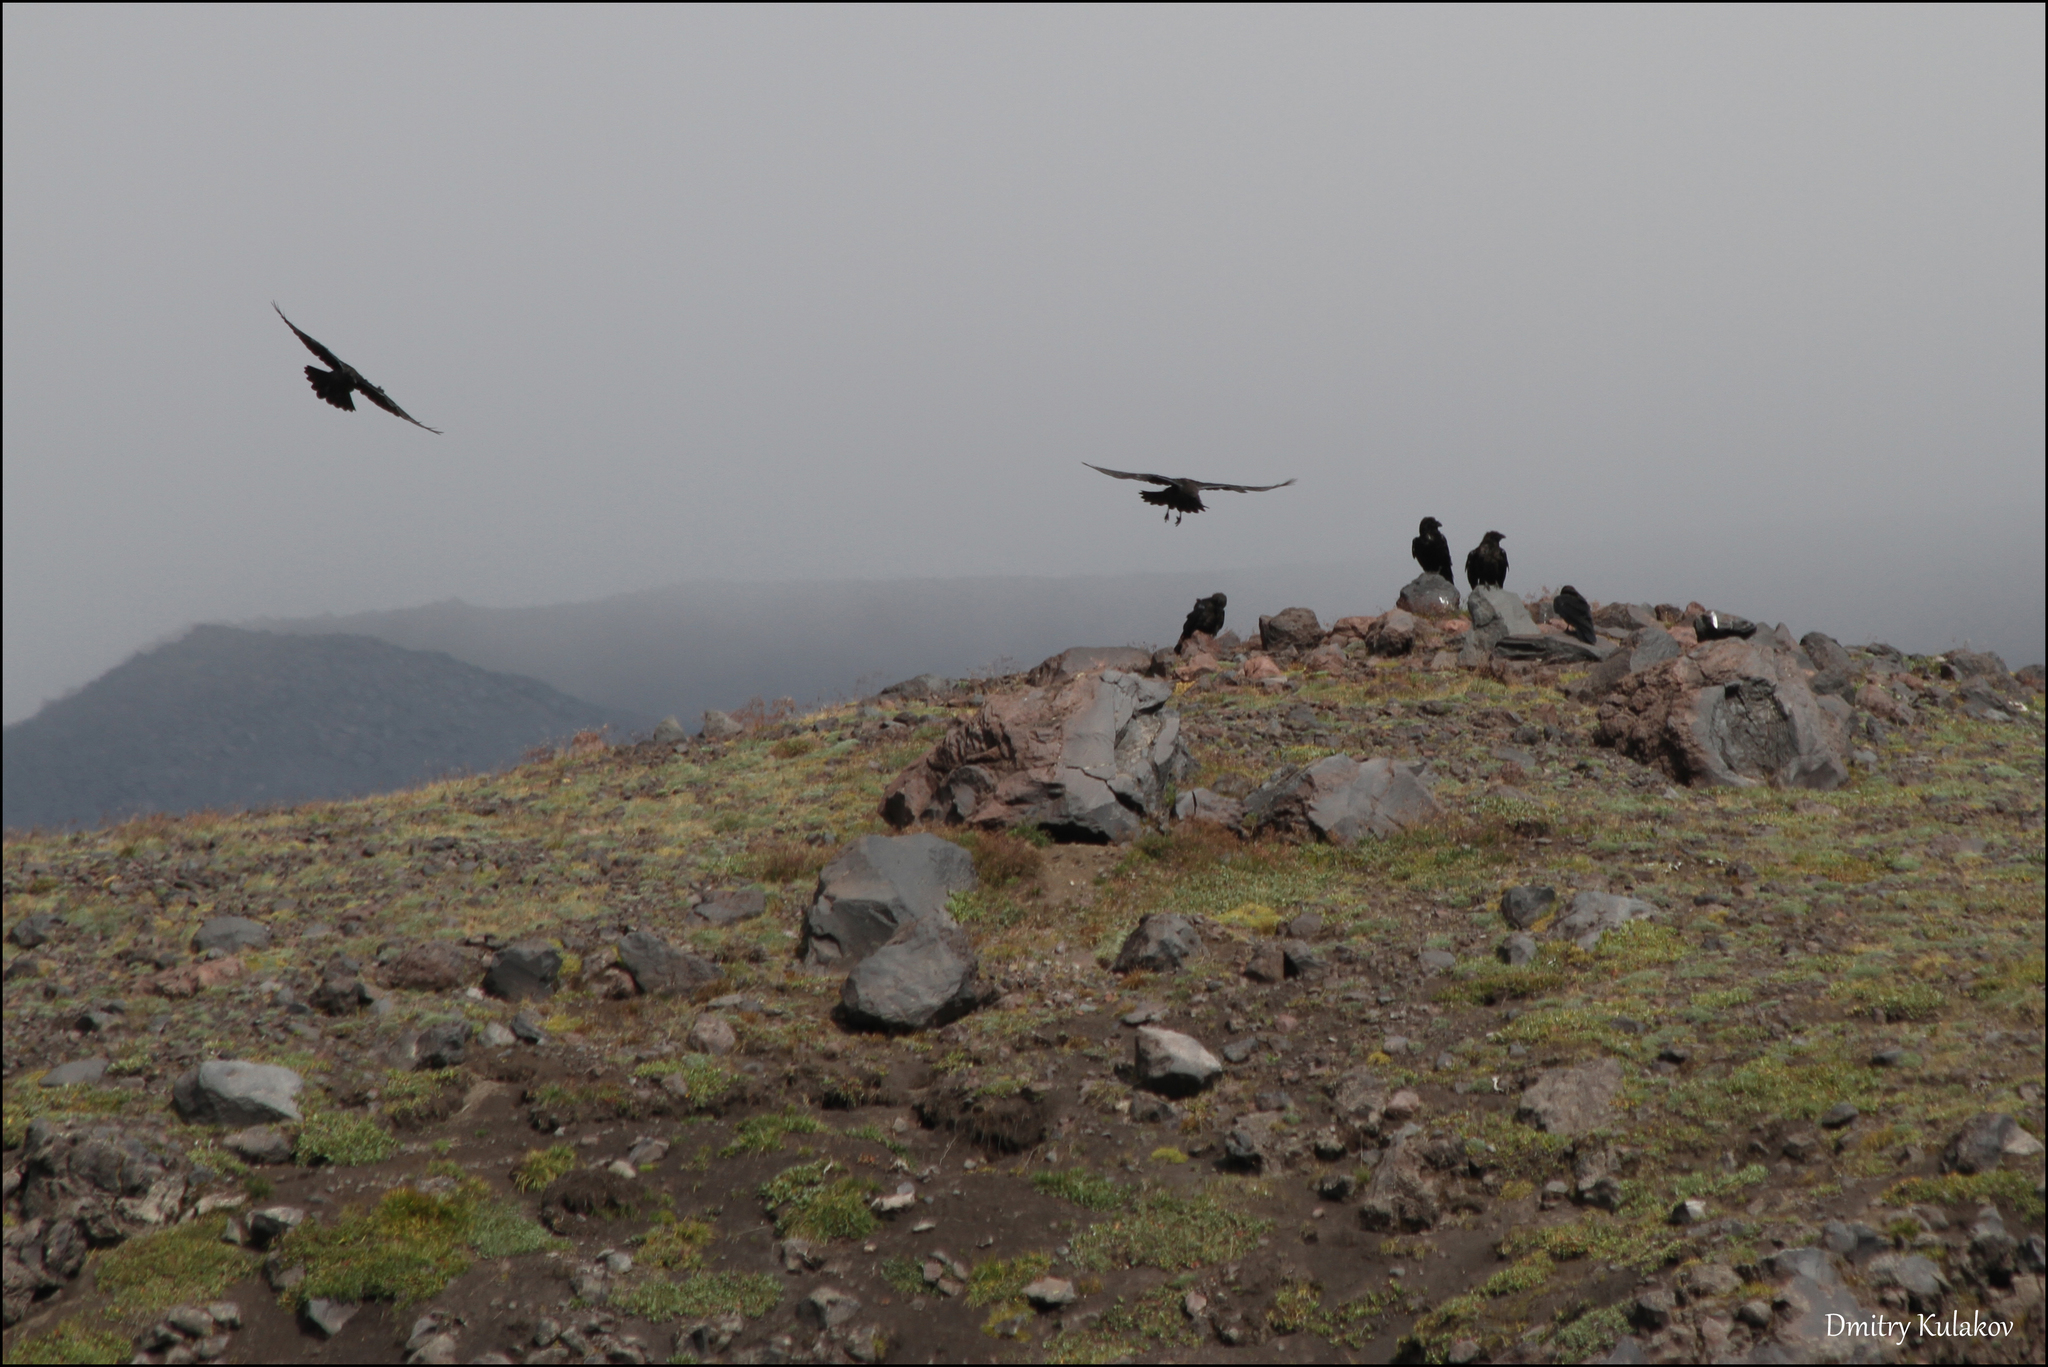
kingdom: Animalia
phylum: Chordata
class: Aves
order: Passeriformes
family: Corvidae
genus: Corvus
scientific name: Corvus corax
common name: Common raven
